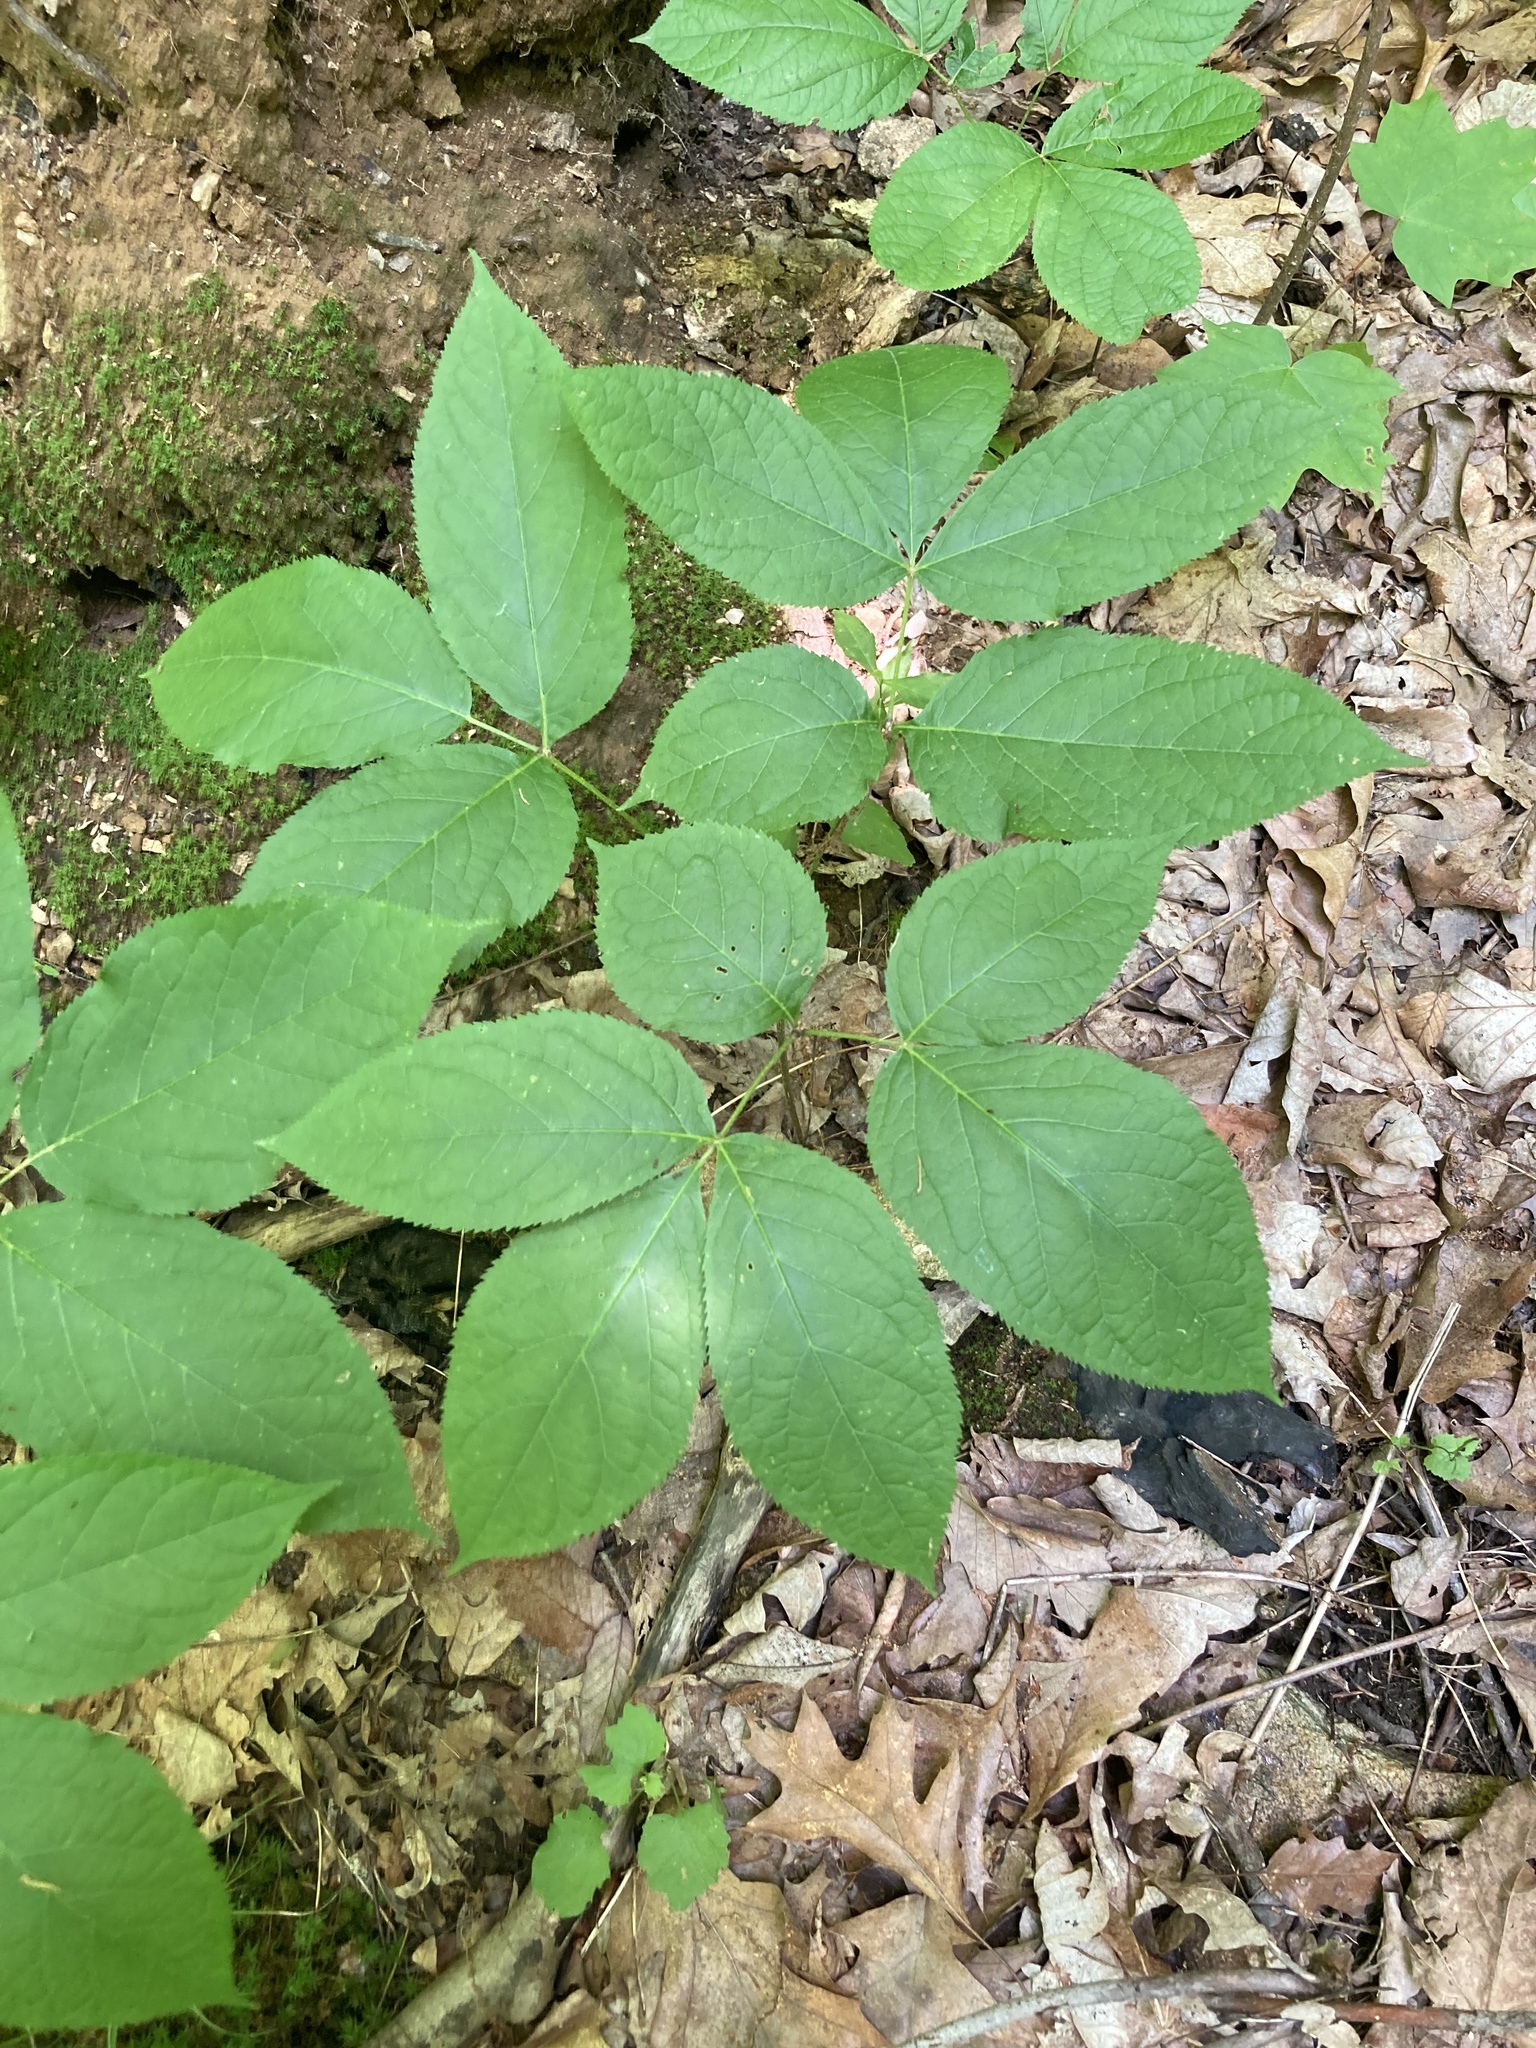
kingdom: Plantae
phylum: Tracheophyta
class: Magnoliopsida
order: Apiales
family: Araliaceae
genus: Aralia
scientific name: Aralia nudicaulis
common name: Wild sarsaparilla
